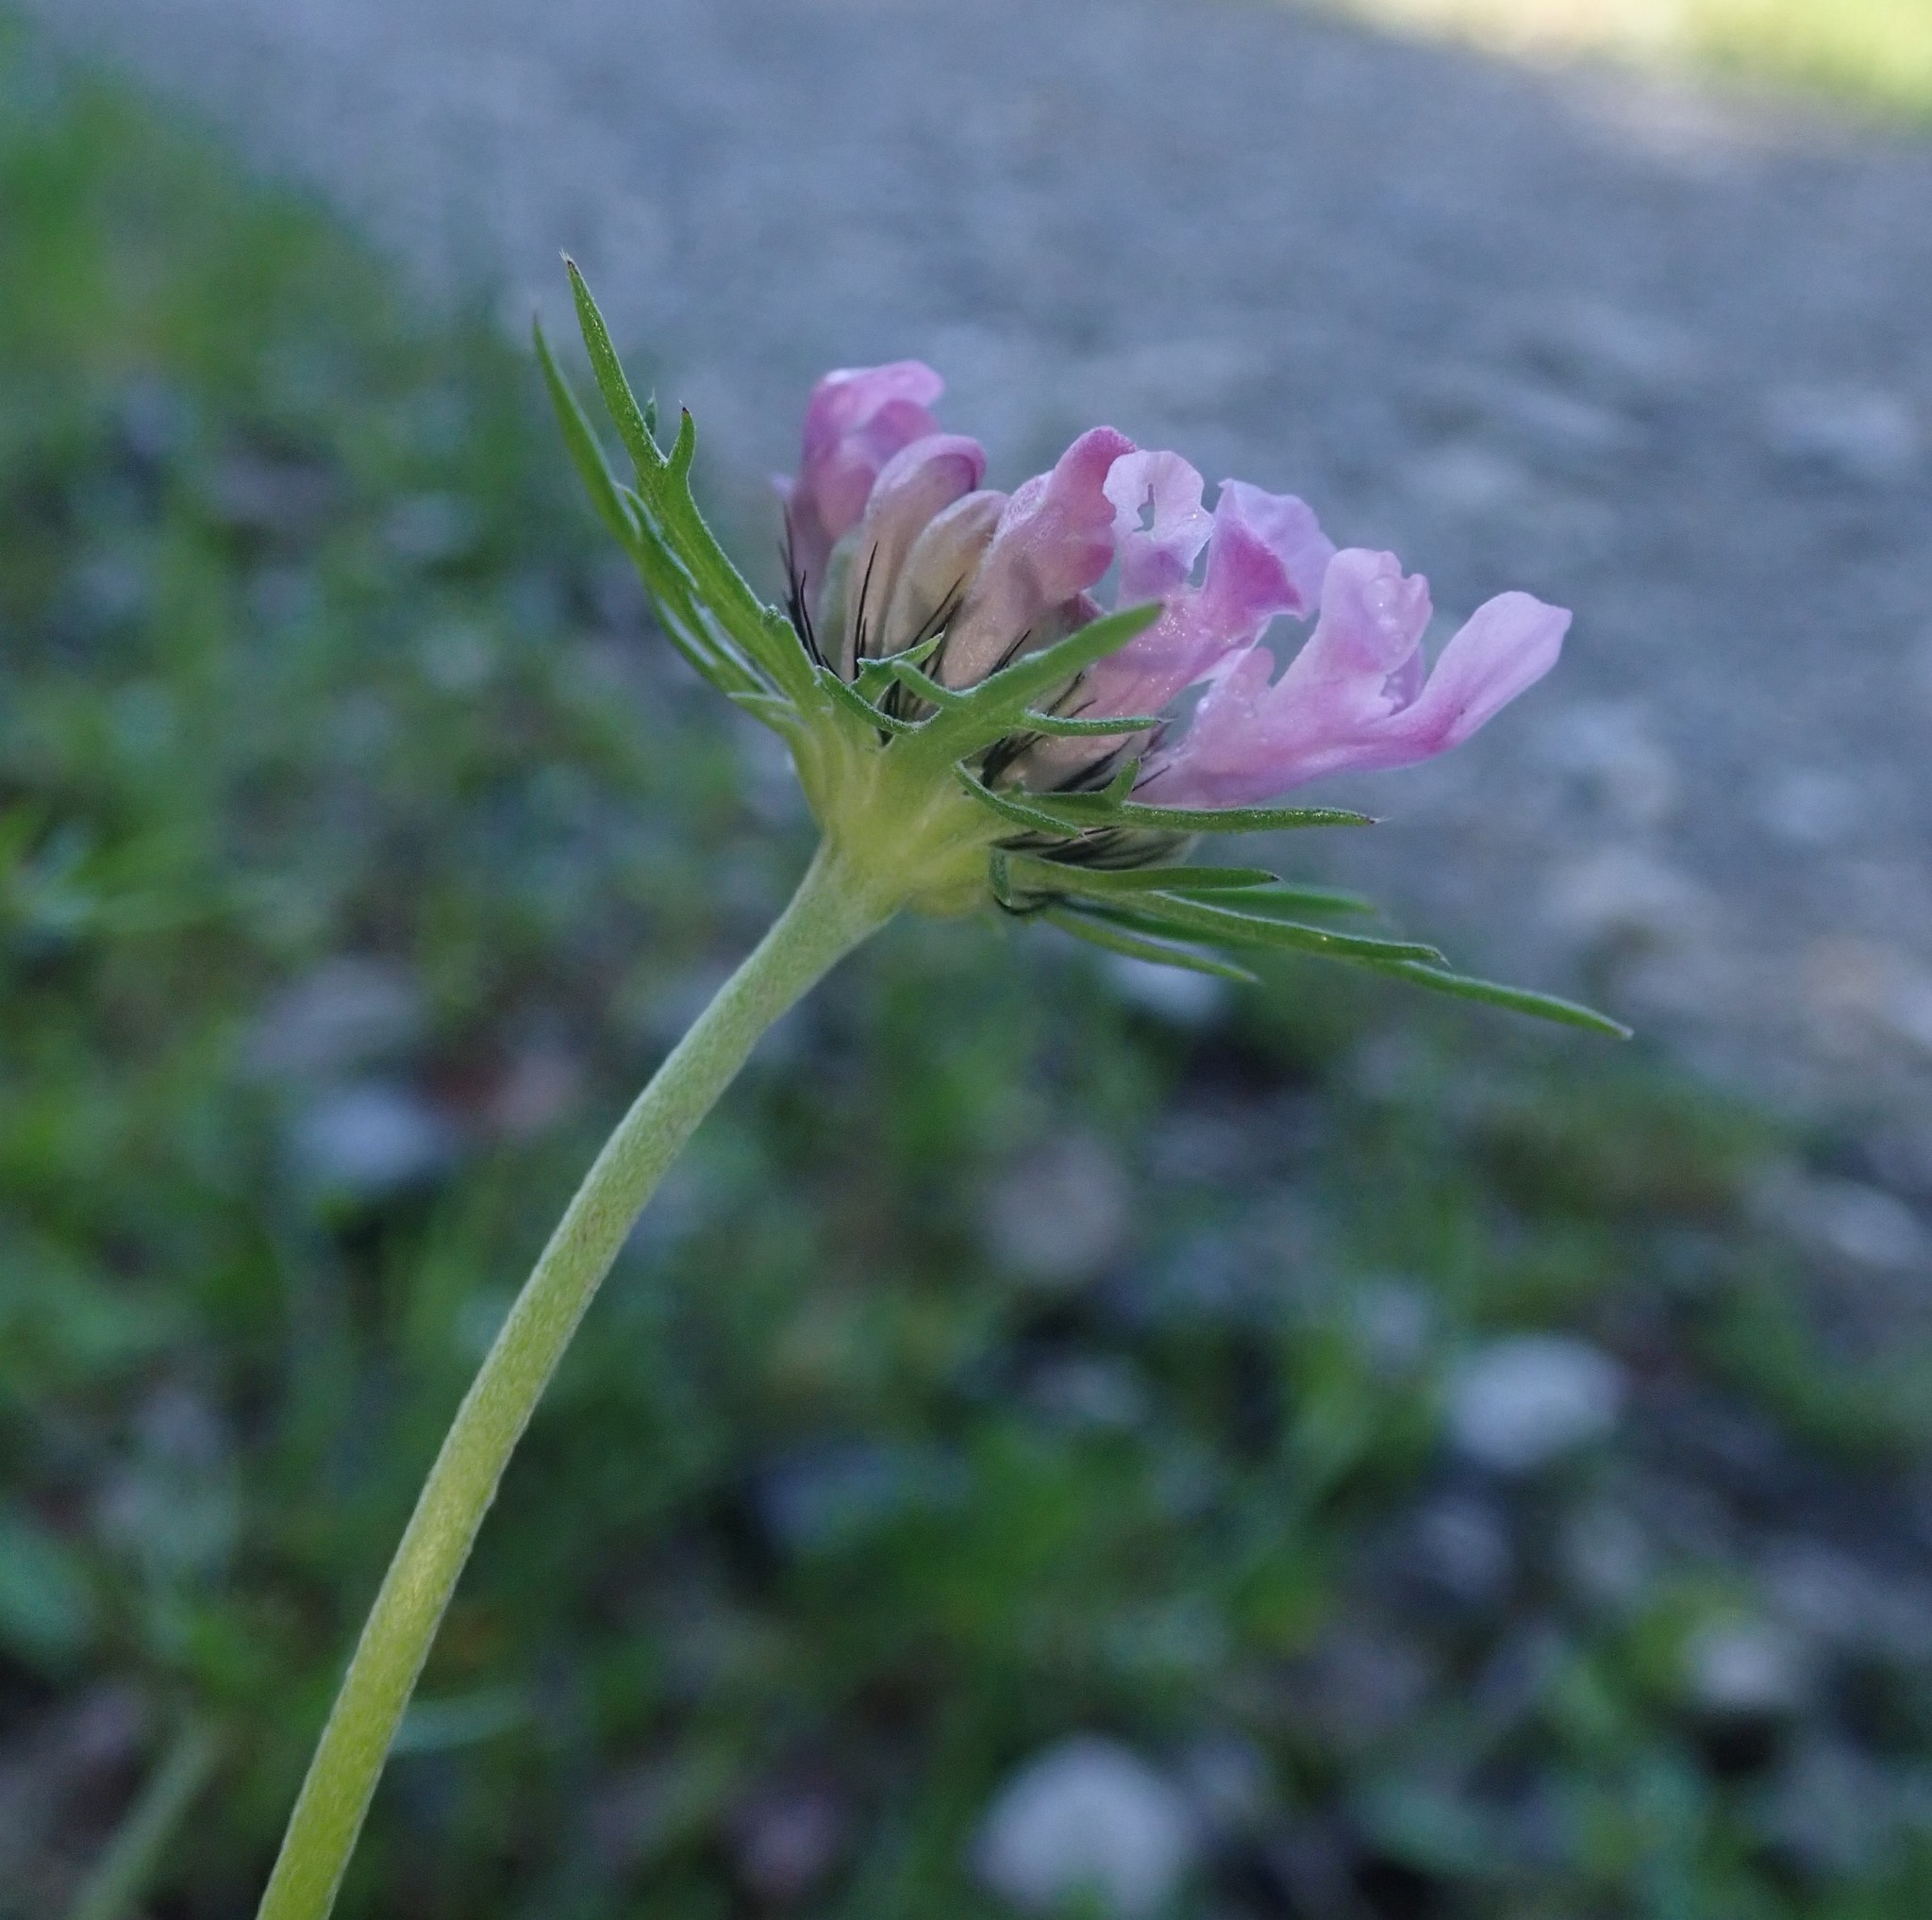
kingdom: Plantae
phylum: Tracheophyta
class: Magnoliopsida
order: Dipsacales
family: Caprifoliaceae
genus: Scabiosa
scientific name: Scabiosa columbaria
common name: Small scabious
